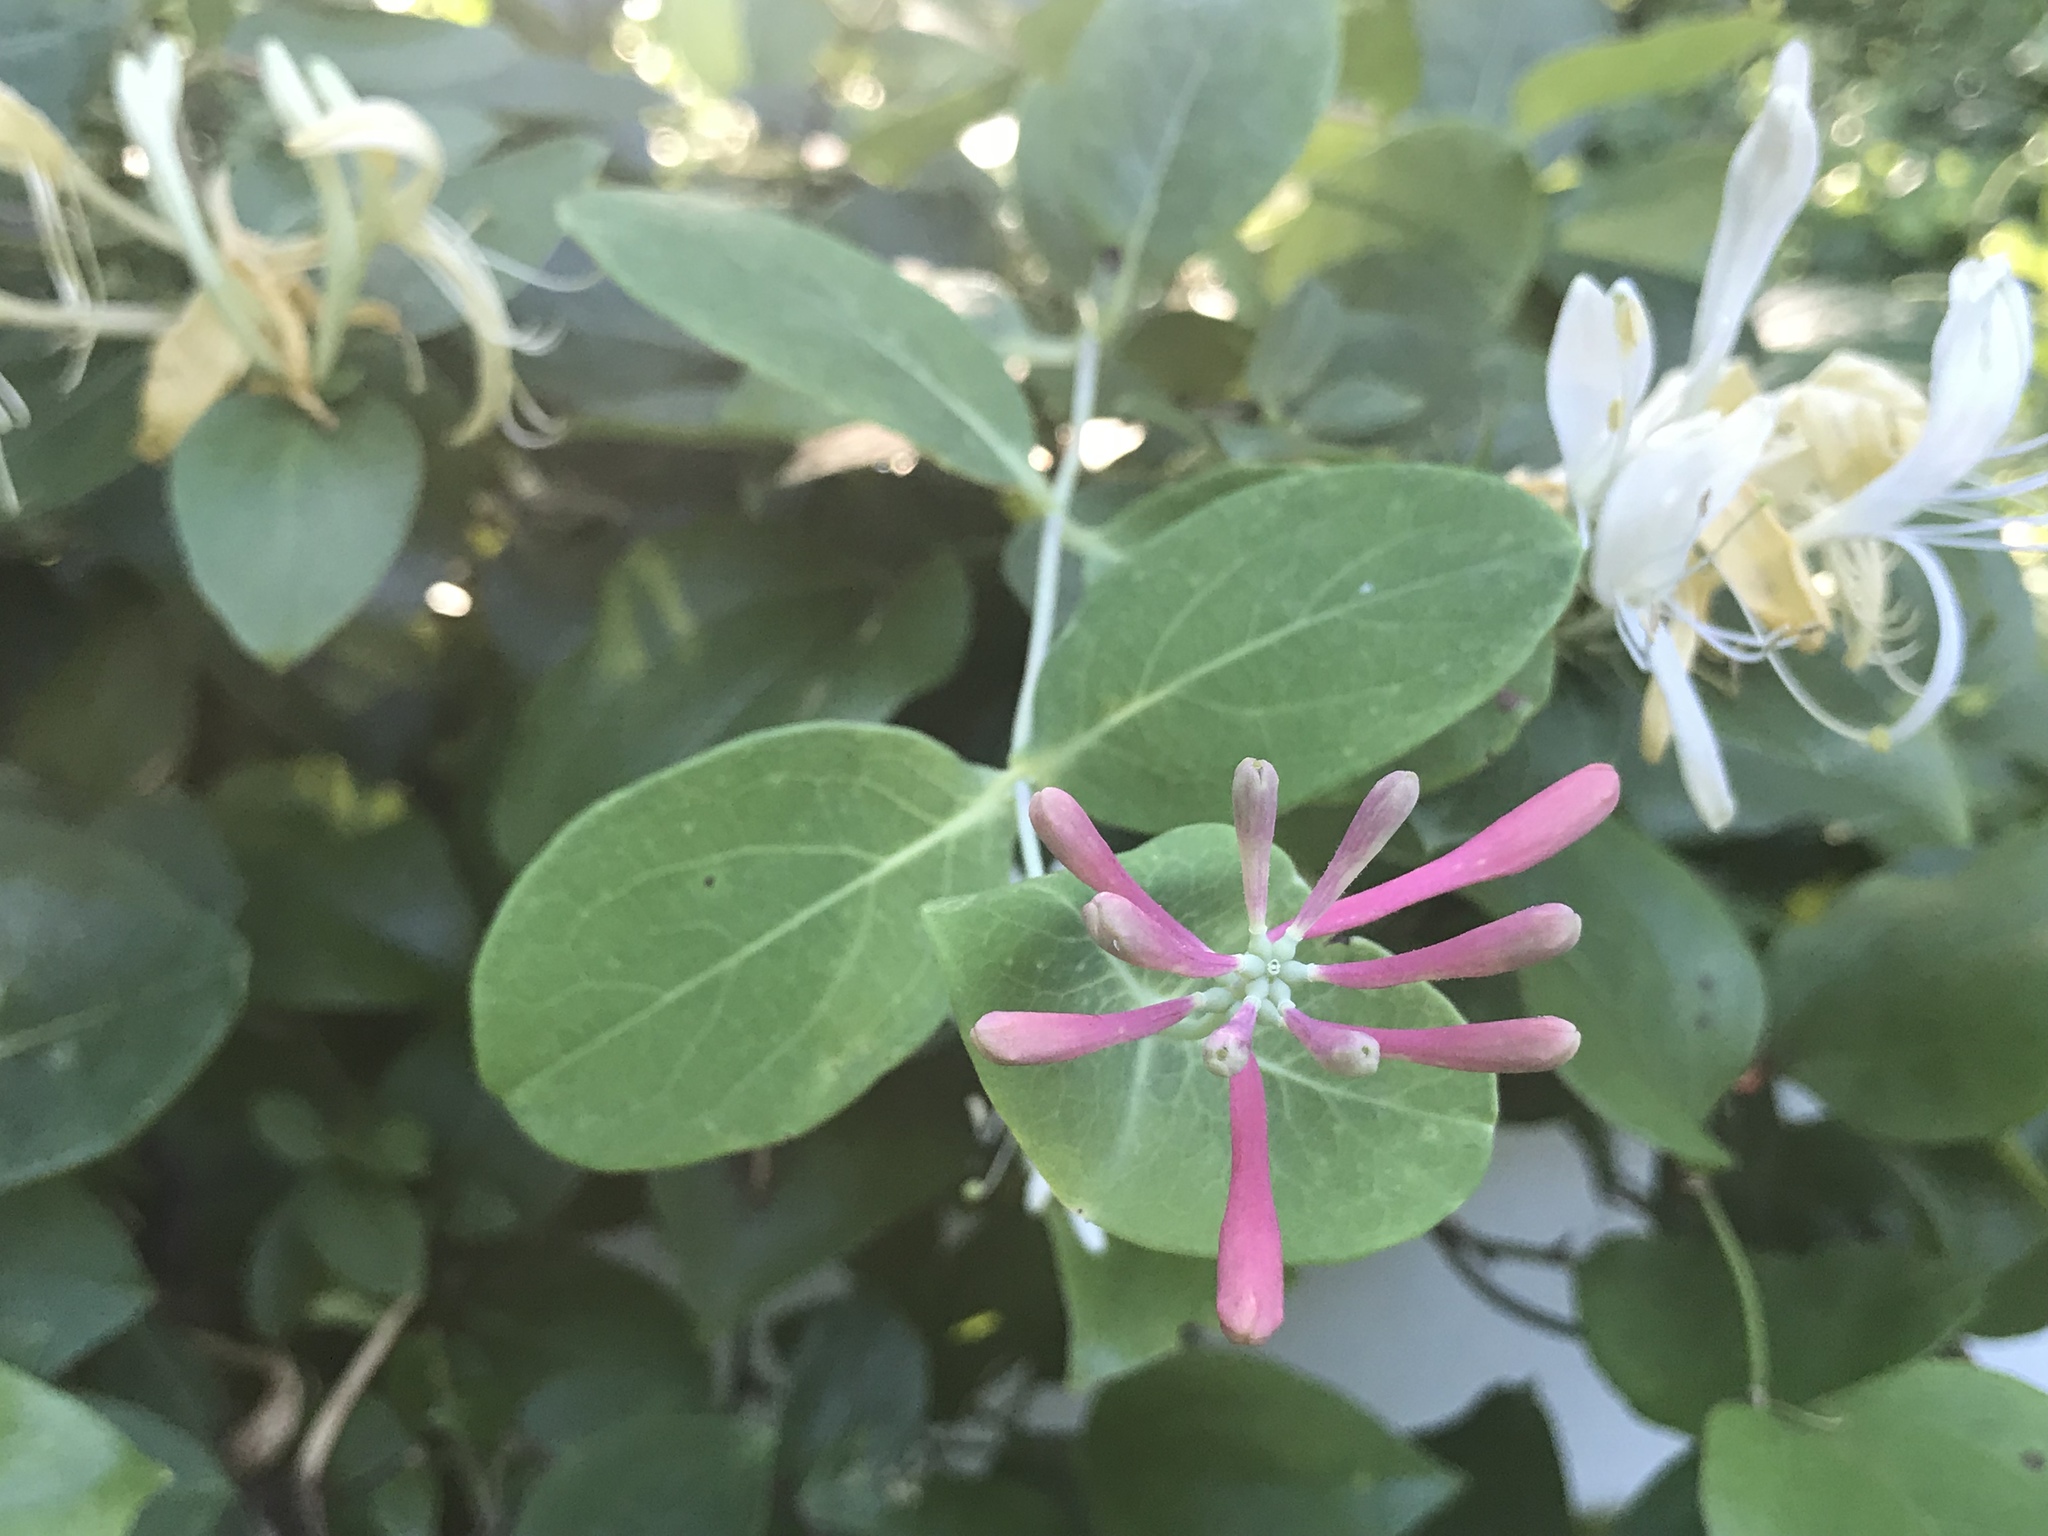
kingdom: Plantae
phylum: Tracheophyta
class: Magnoliopsida
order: Dipsacales
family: Caprifoliaceae
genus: Lonicera
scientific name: Lonicera sempervirens
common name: Coral honeysuckle
